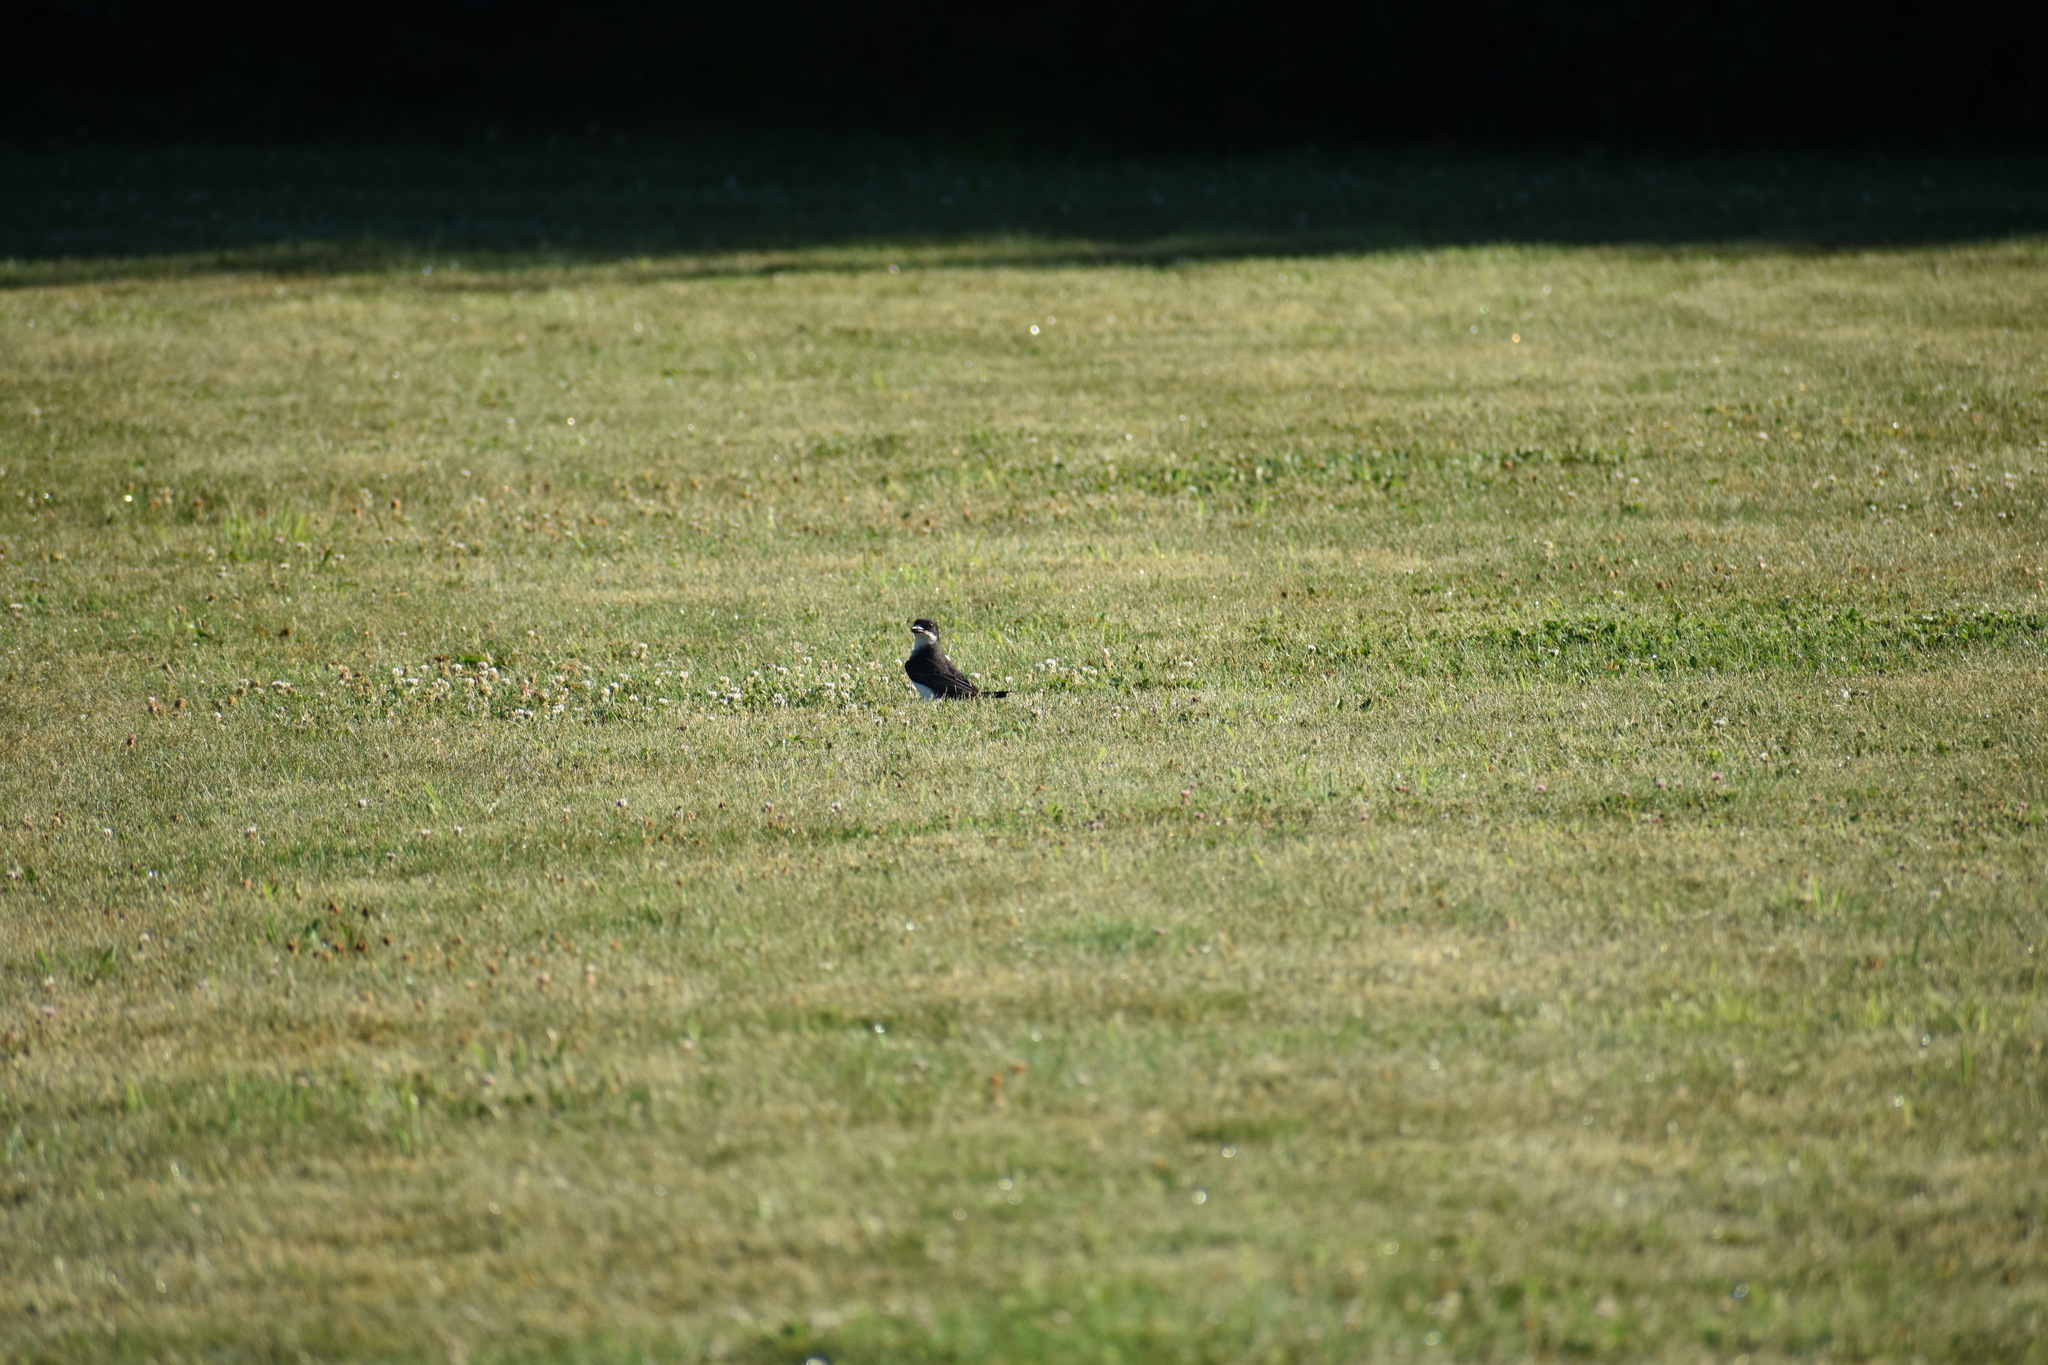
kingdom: Animalia
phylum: Chordata
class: Aves
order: Passeriformes
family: Tyrannidae
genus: Tyrannus
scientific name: Tyrannus tyrannus
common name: Eastern kingbird
